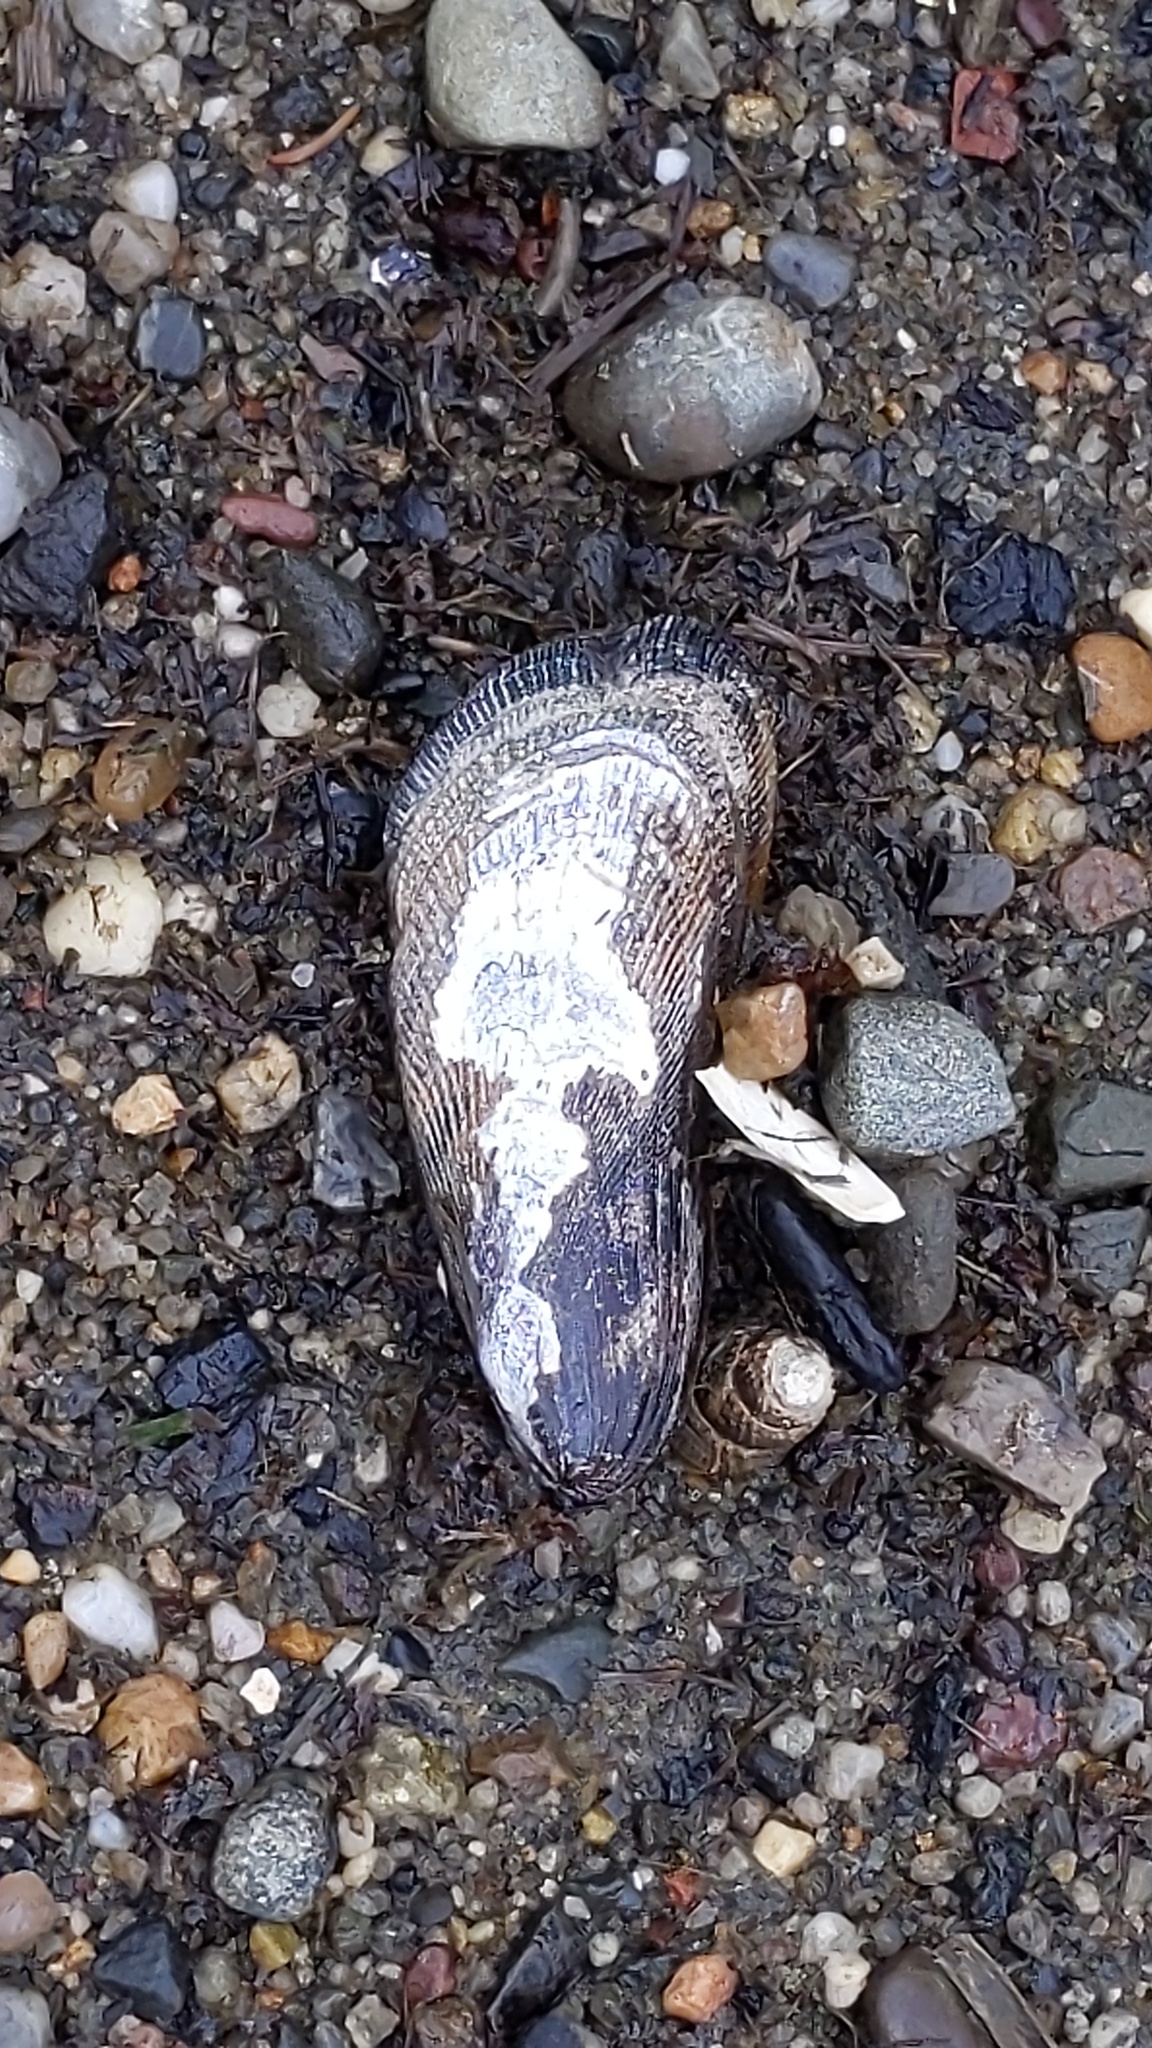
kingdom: Animalia
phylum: Mollusca
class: Bivalvia
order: Mytilida
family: Mytilidae
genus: Geukensia
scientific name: Geukensia demissa
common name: Ribbed mussel
